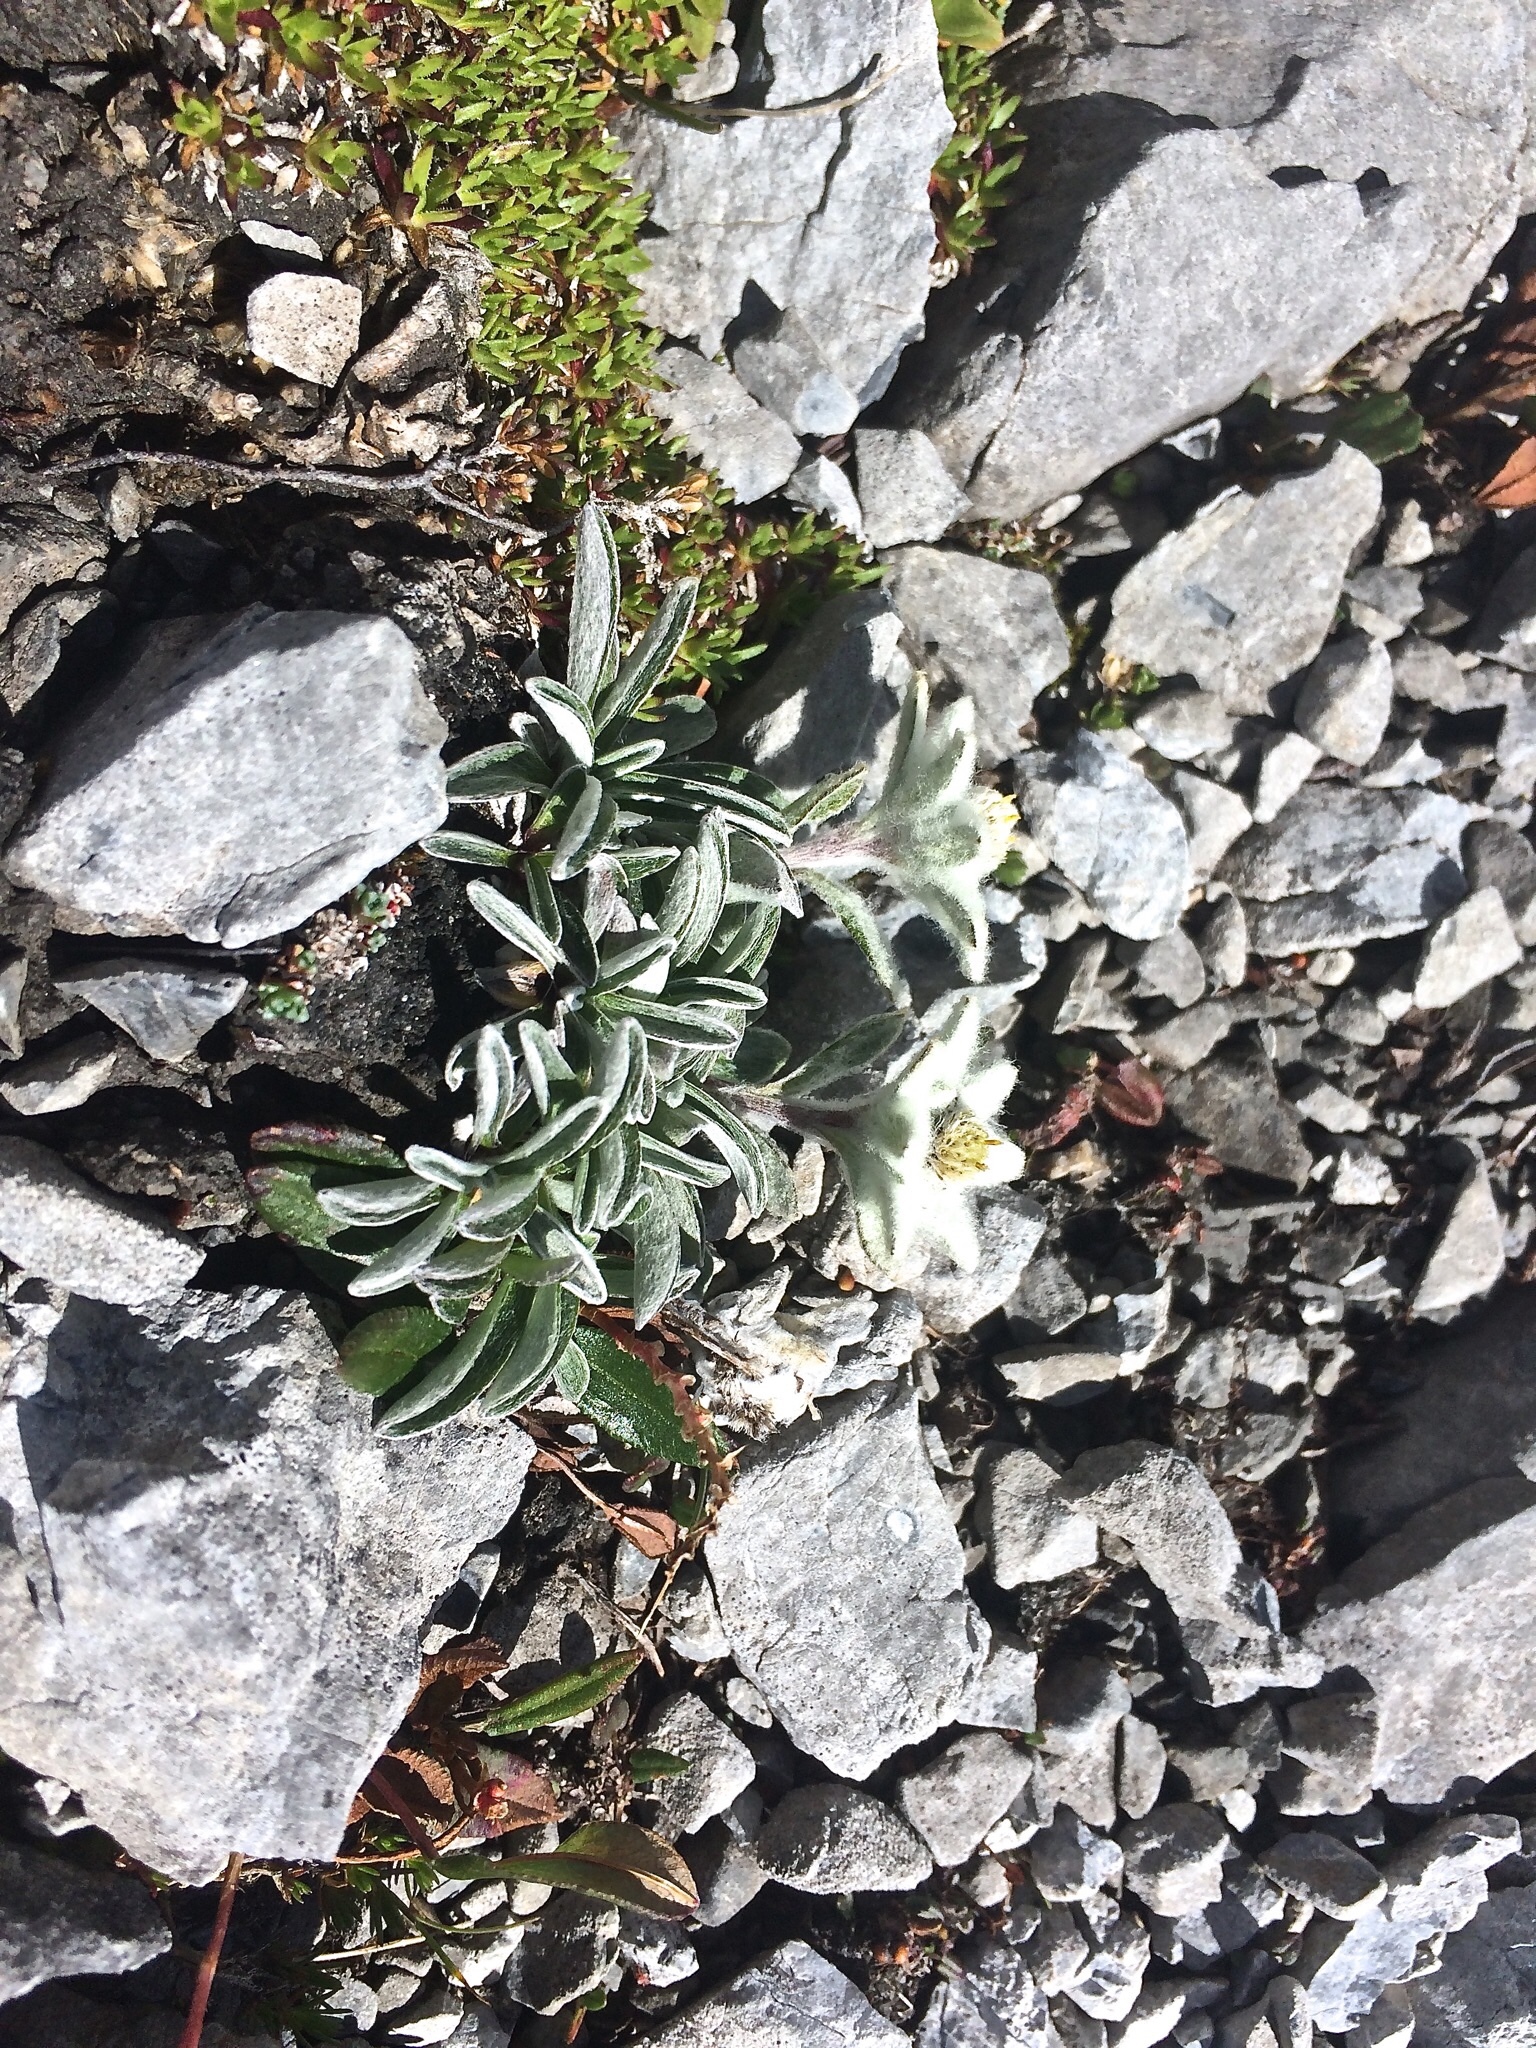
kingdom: Plantae
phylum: Tracheophyta
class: Magnoliopsida
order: Asterales
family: Asteraceae
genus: Leontopodium
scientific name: Leontopodium nivale
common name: Edelweiss
